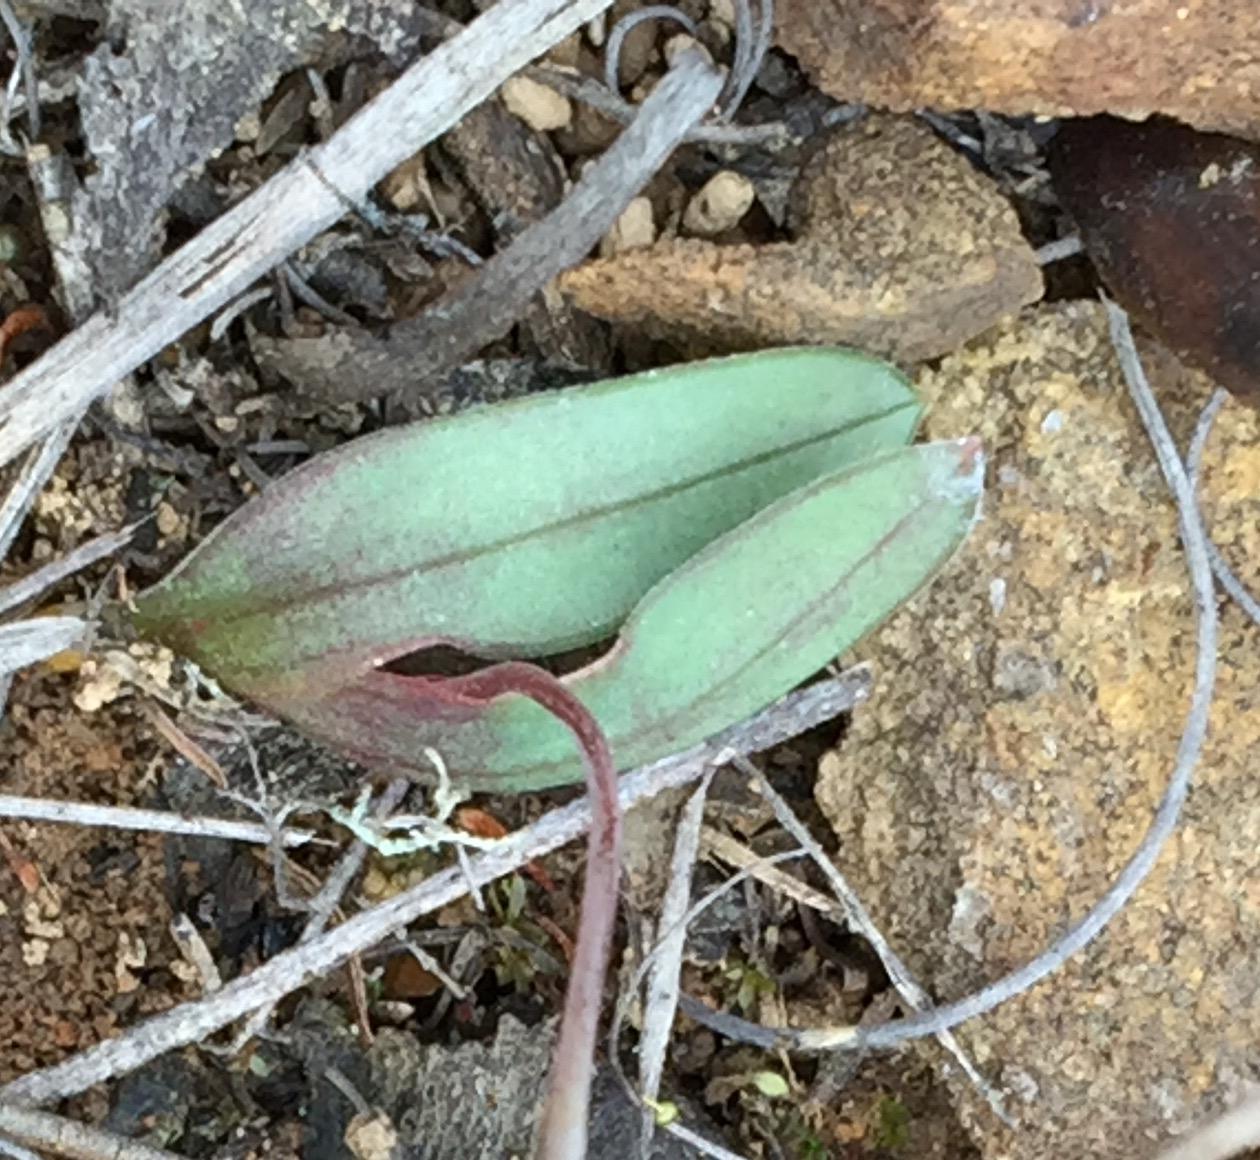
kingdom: Plantae
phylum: Tracheophyta
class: Liliopsida
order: Asparagales
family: Iridaceae
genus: Geissorhiza
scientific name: Geissorhiza ovata
